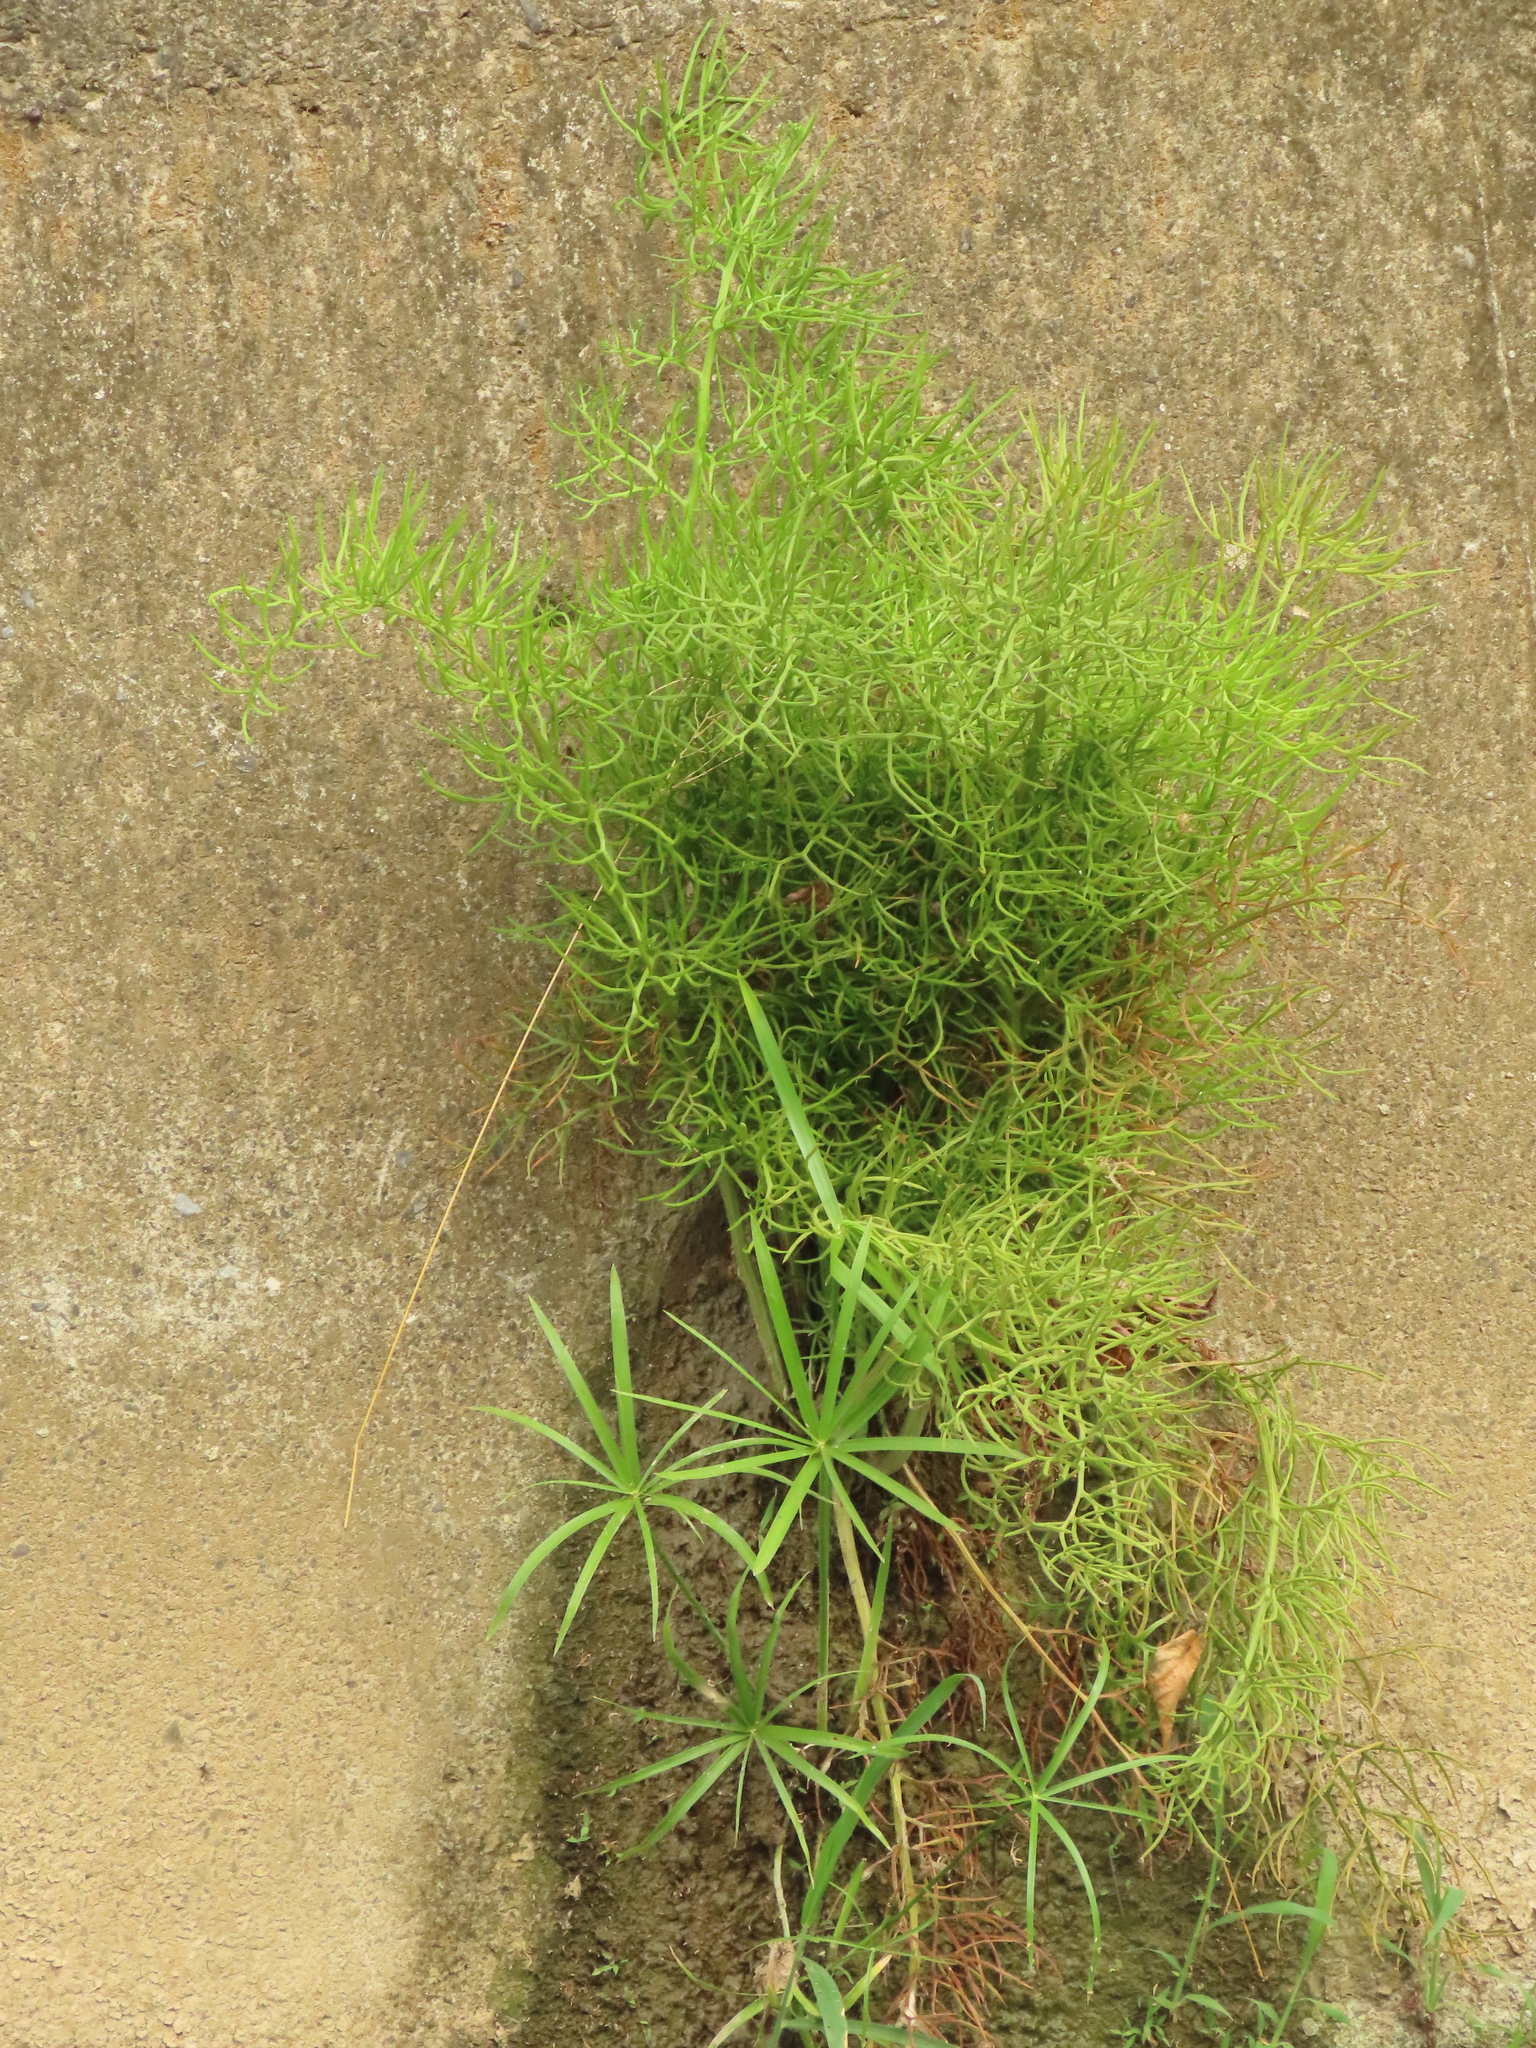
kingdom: Plantae
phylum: Tracheophyta
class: Polypodiopsida
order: Polypodiales
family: Pteridaceae
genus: Ceratopteris
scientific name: Ceratopteris thalictroides
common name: Water fern
